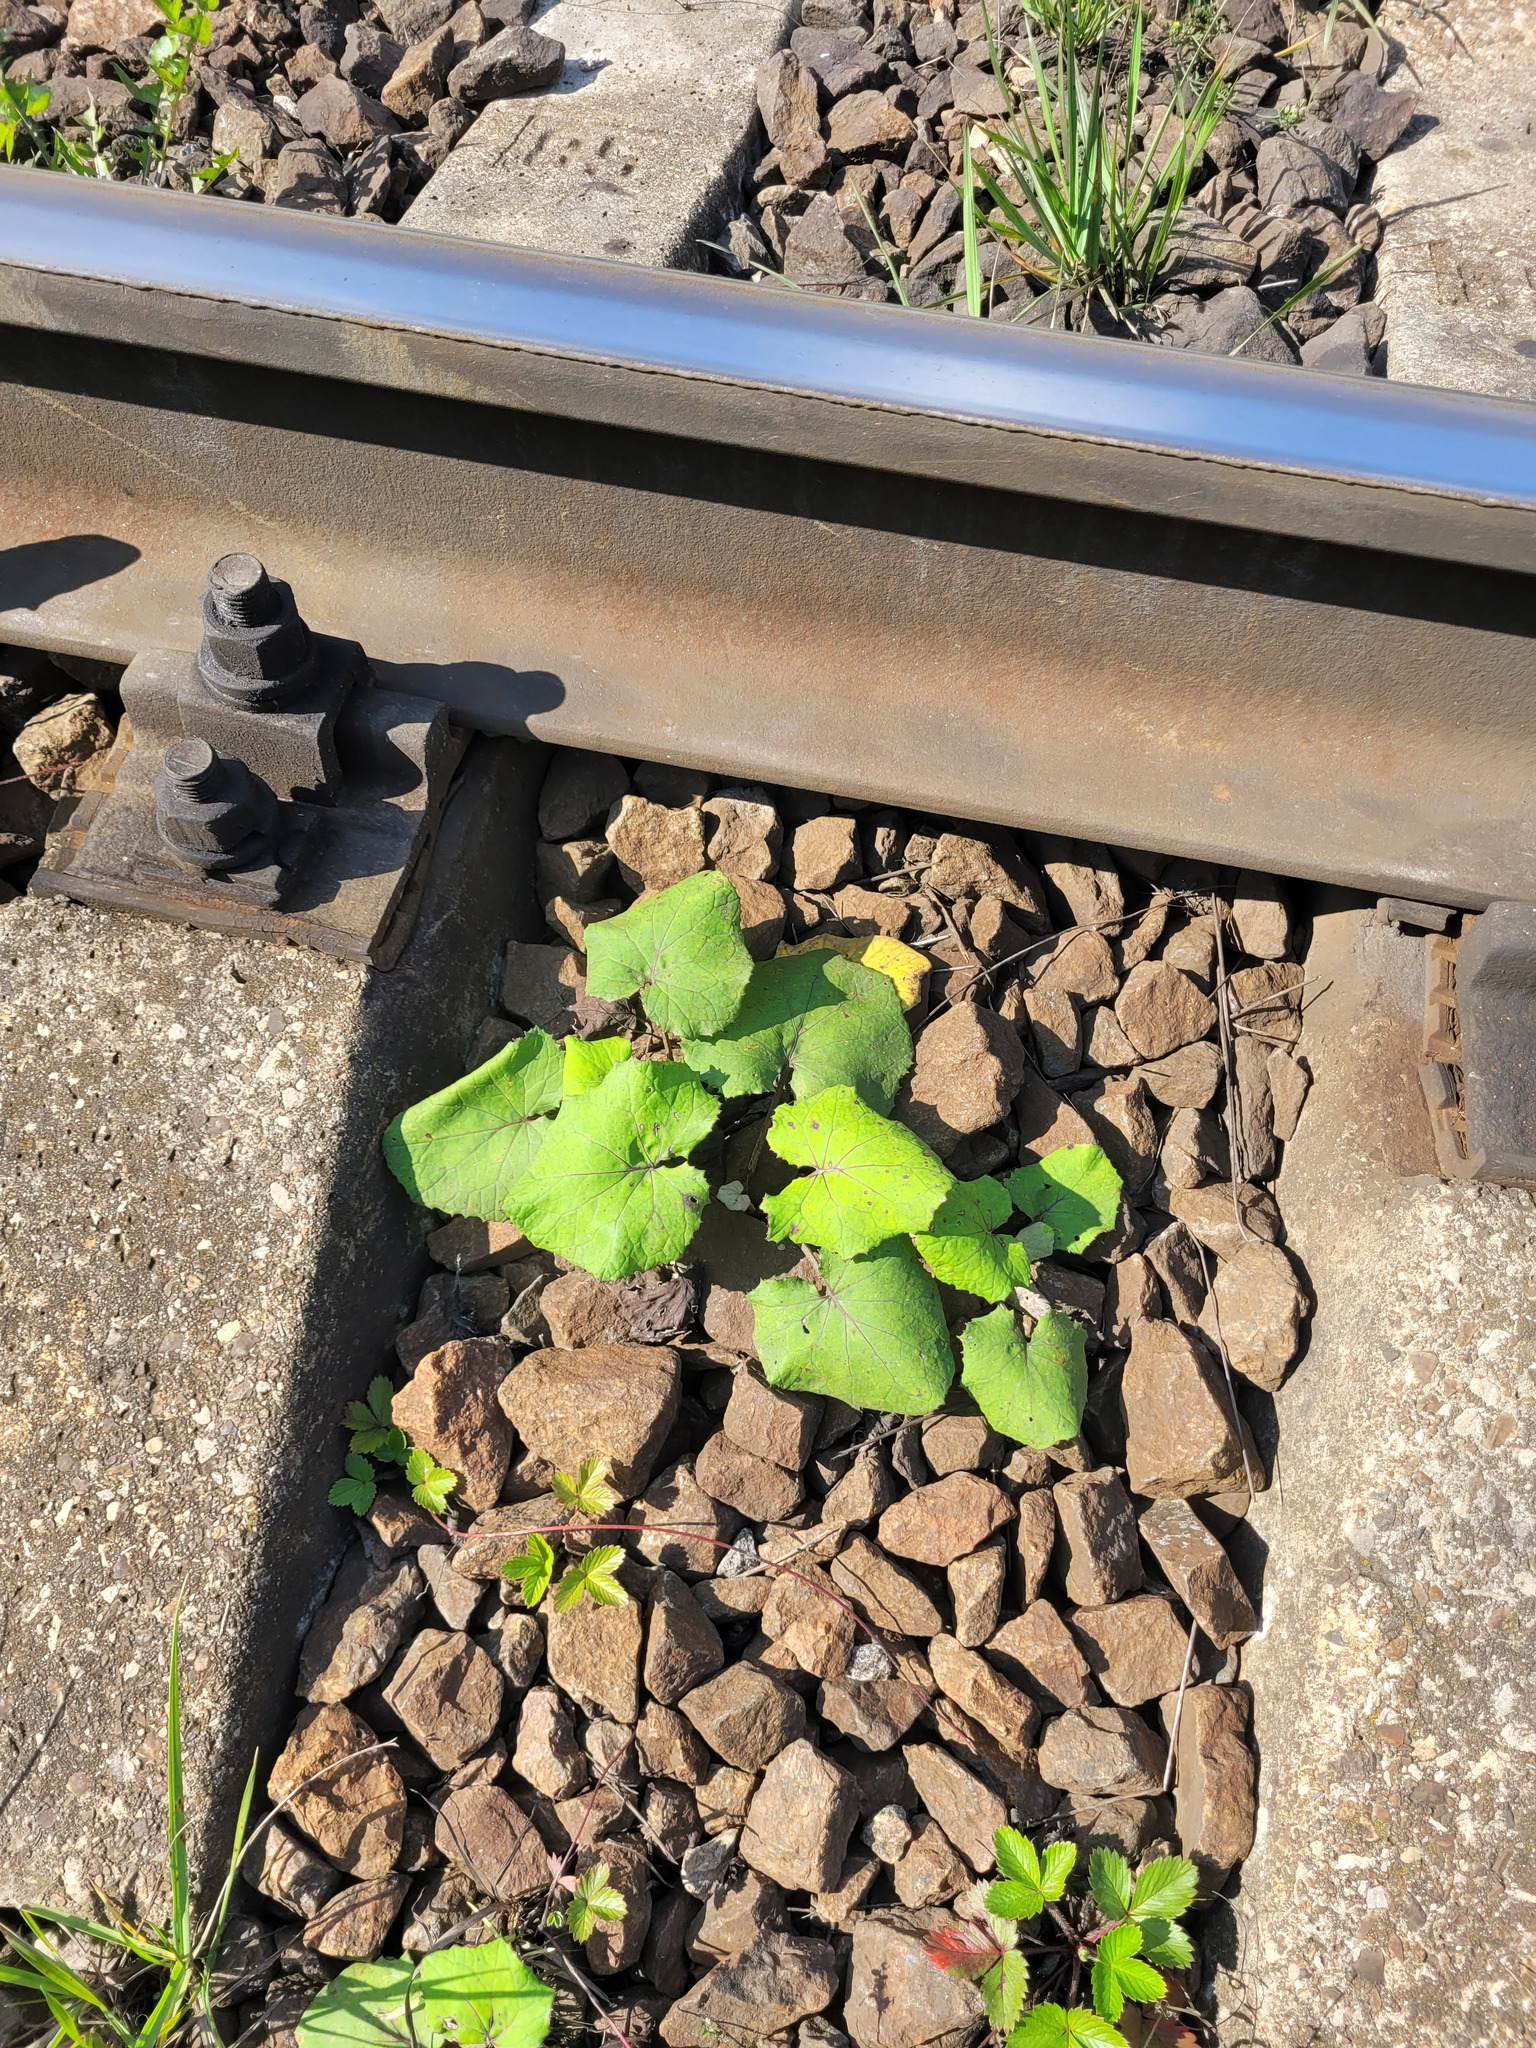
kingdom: Plantae
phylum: Tracheophyta
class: Magnoliopsida
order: Asterales
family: Asteraceae
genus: Tussilago
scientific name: Tussilago farfara
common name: Coltsfoot
